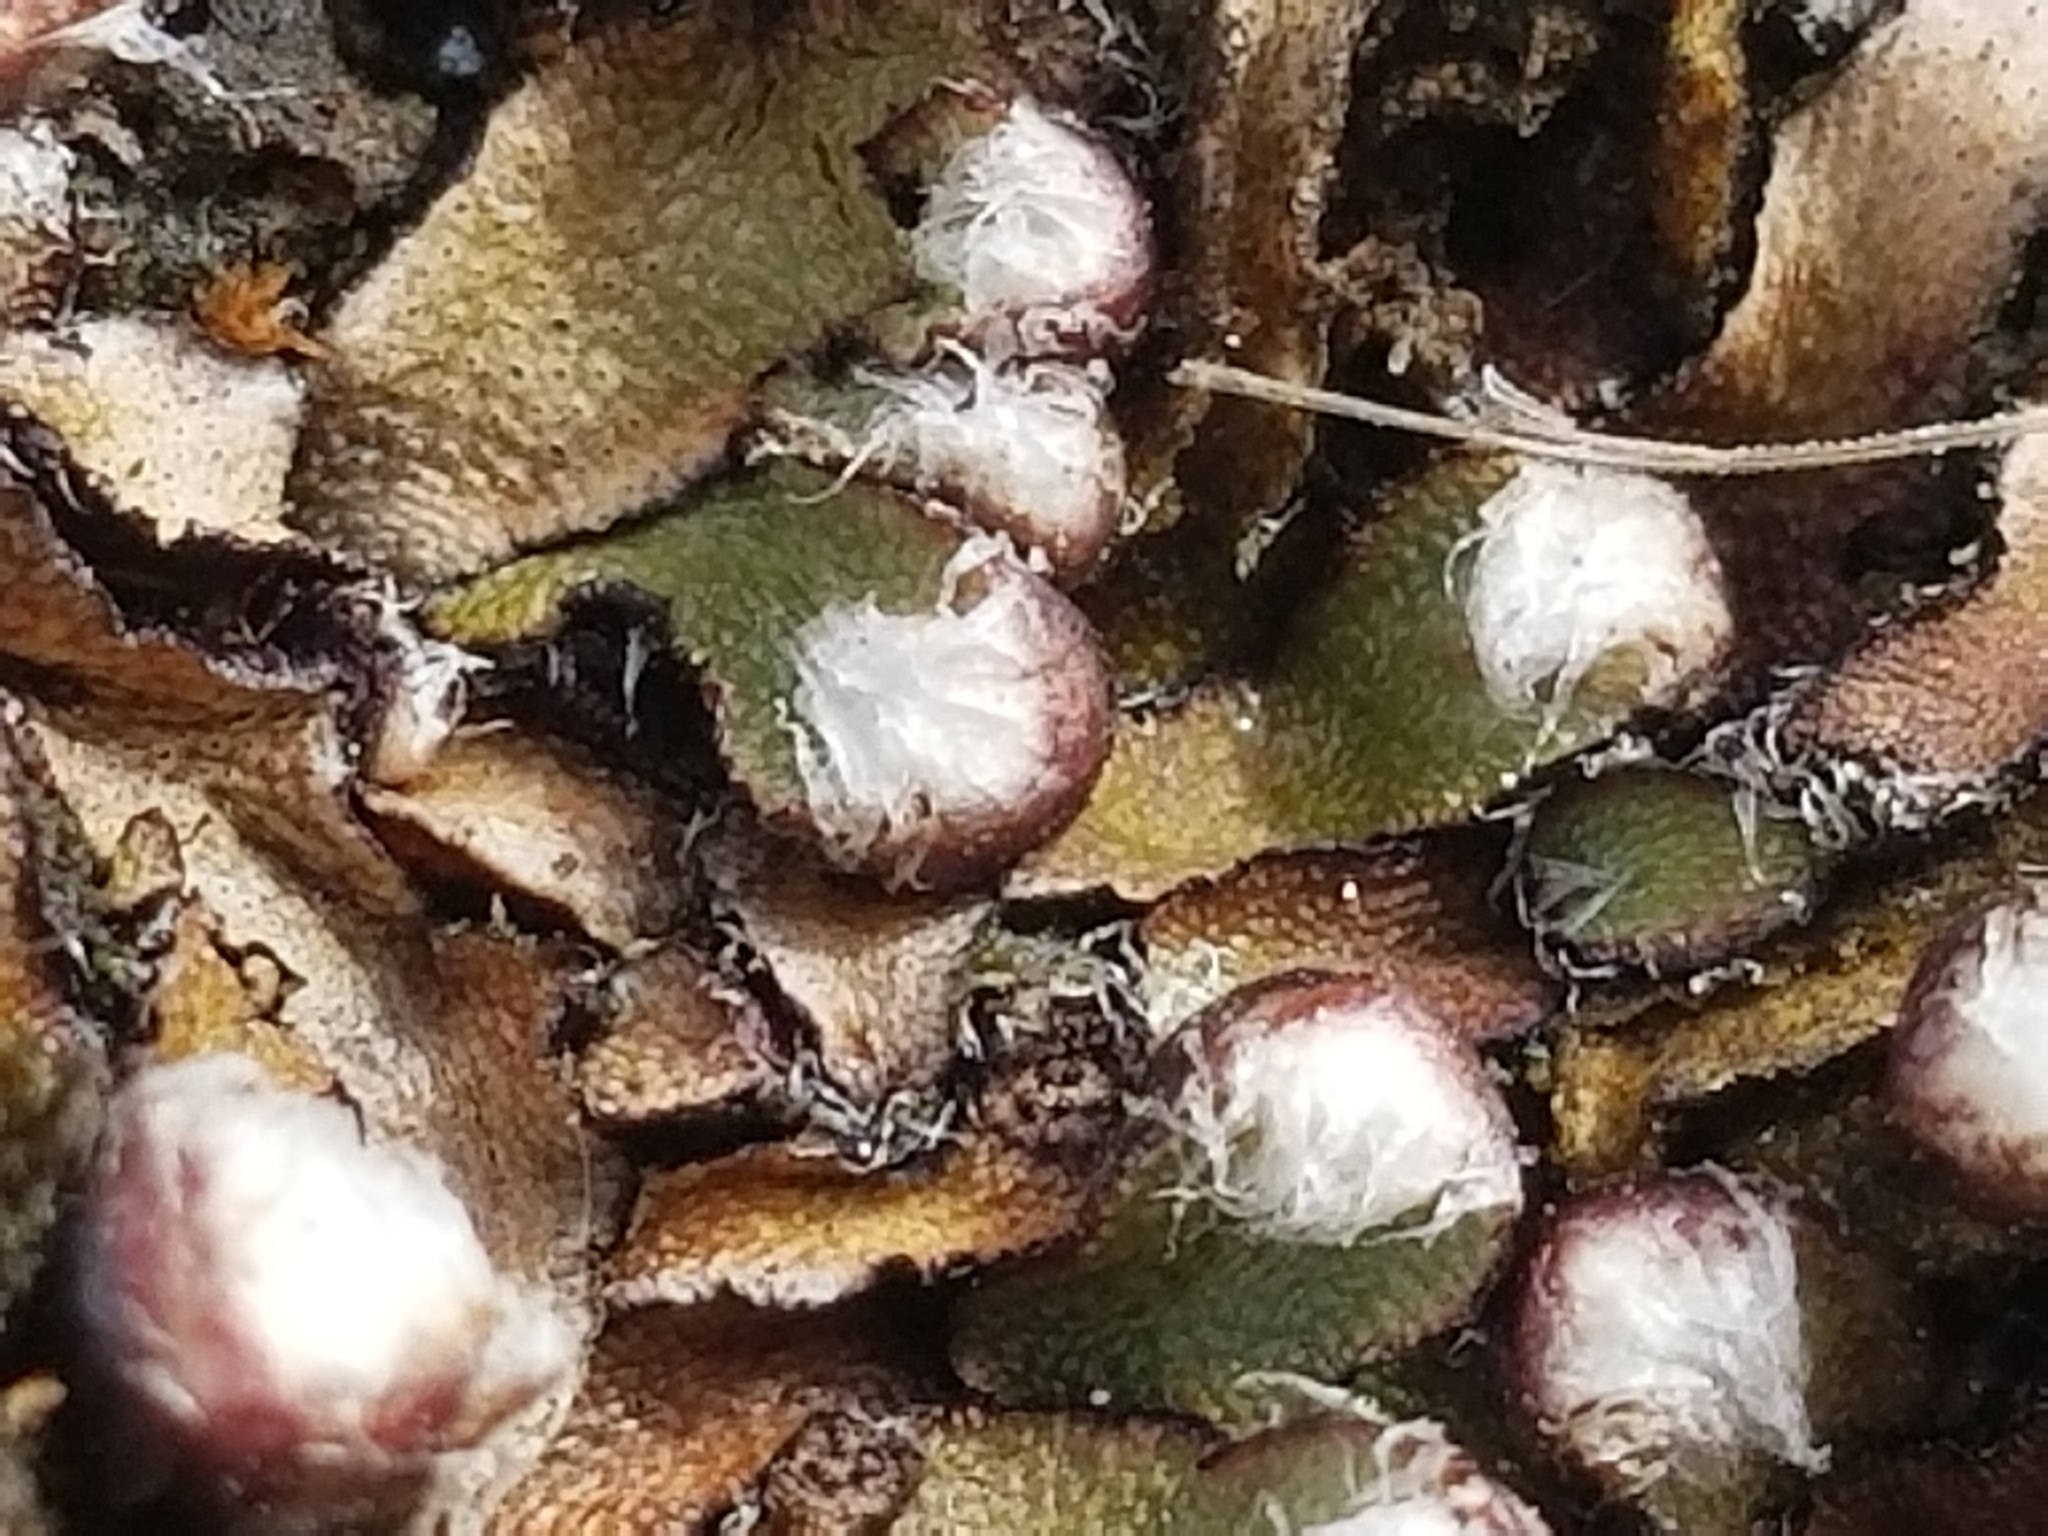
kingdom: Plantae
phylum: Marchantiophyta
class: Marchantiopsida
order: Marchantiales
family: Aytoniaceae
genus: Mannia
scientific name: Mannia fragrans
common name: Fragrant macewort
